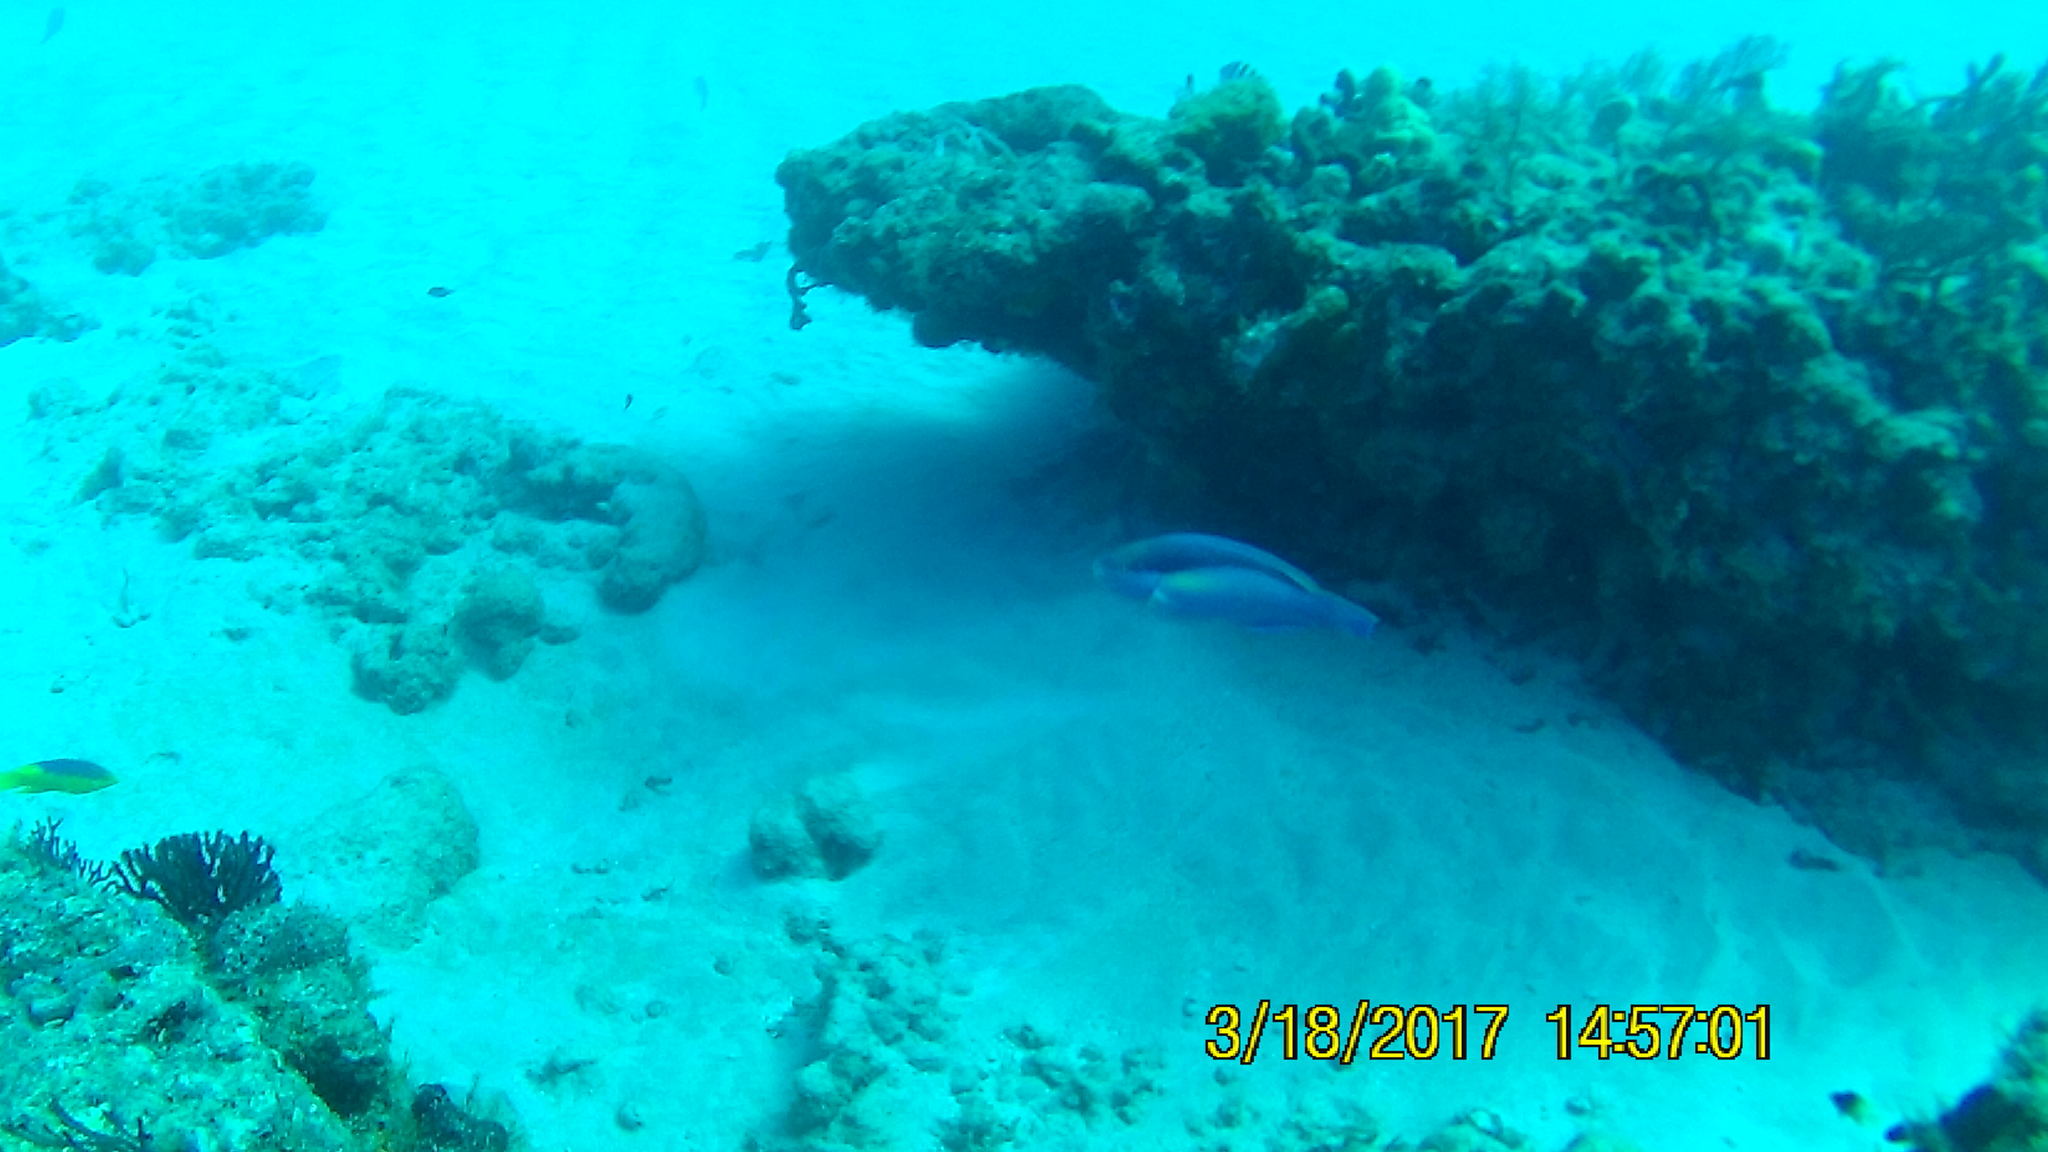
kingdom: Animalia
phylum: Chordata
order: Perciformes
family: Scaridae
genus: Scarus
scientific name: Scarus taeniopterus
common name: Princess parrotfish
